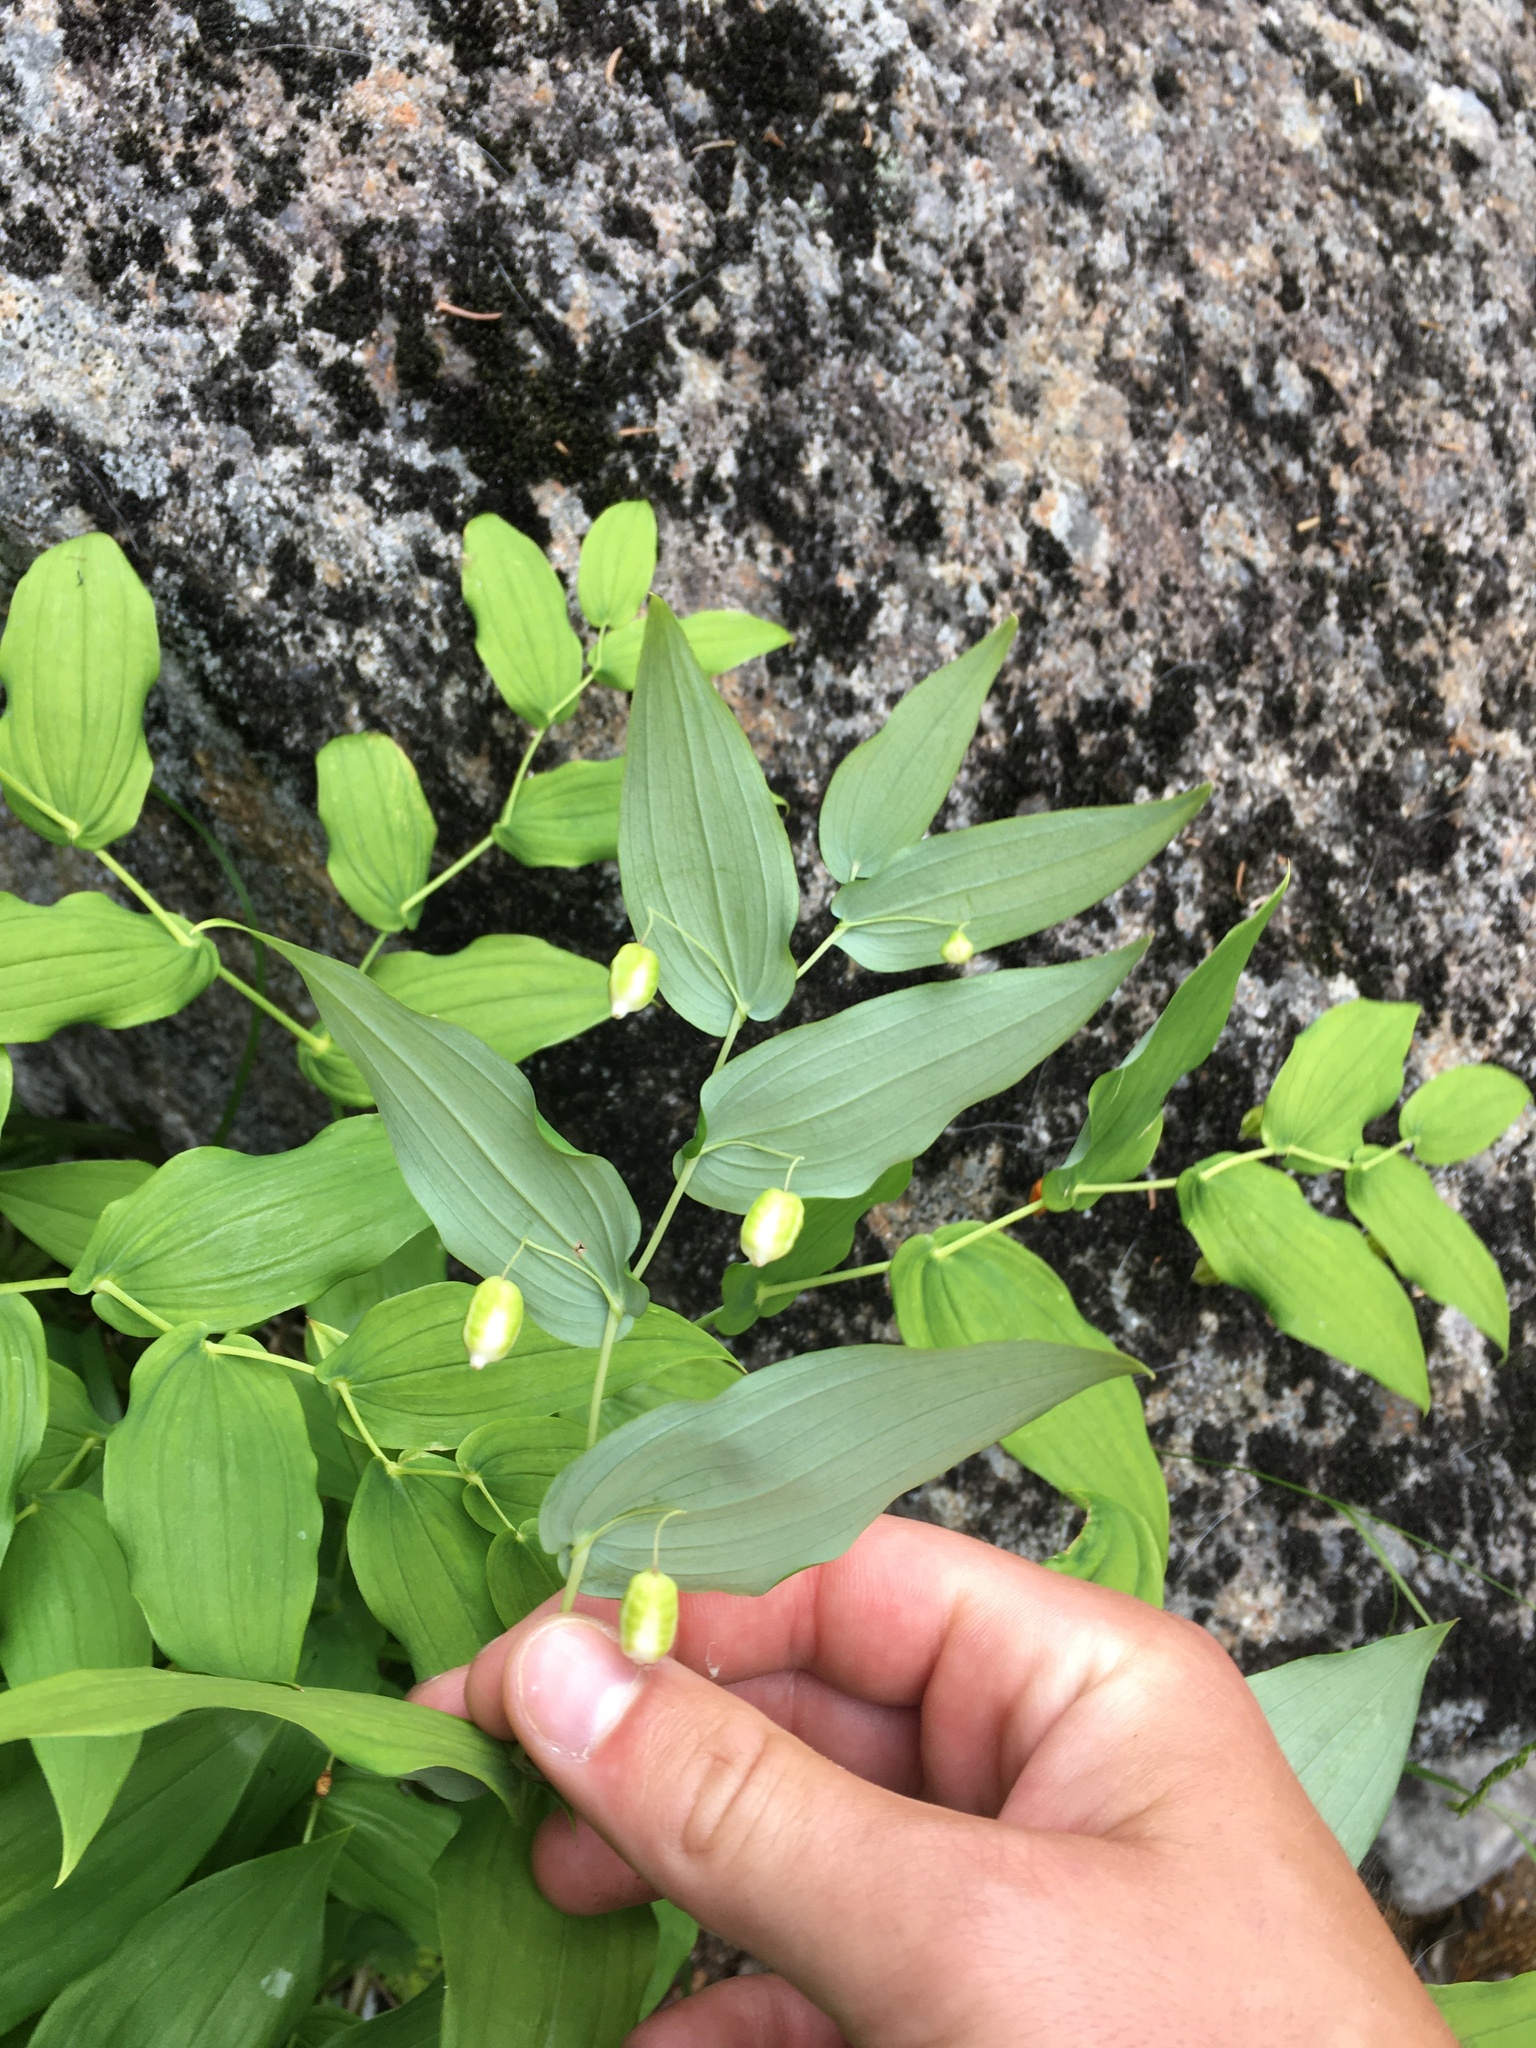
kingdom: Plantae
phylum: Tracheophyta
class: Liliopsida
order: Liliales
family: Liliaceae
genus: Streptopus
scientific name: Streptopus amplexifolius
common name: Clasp twisted stalk
